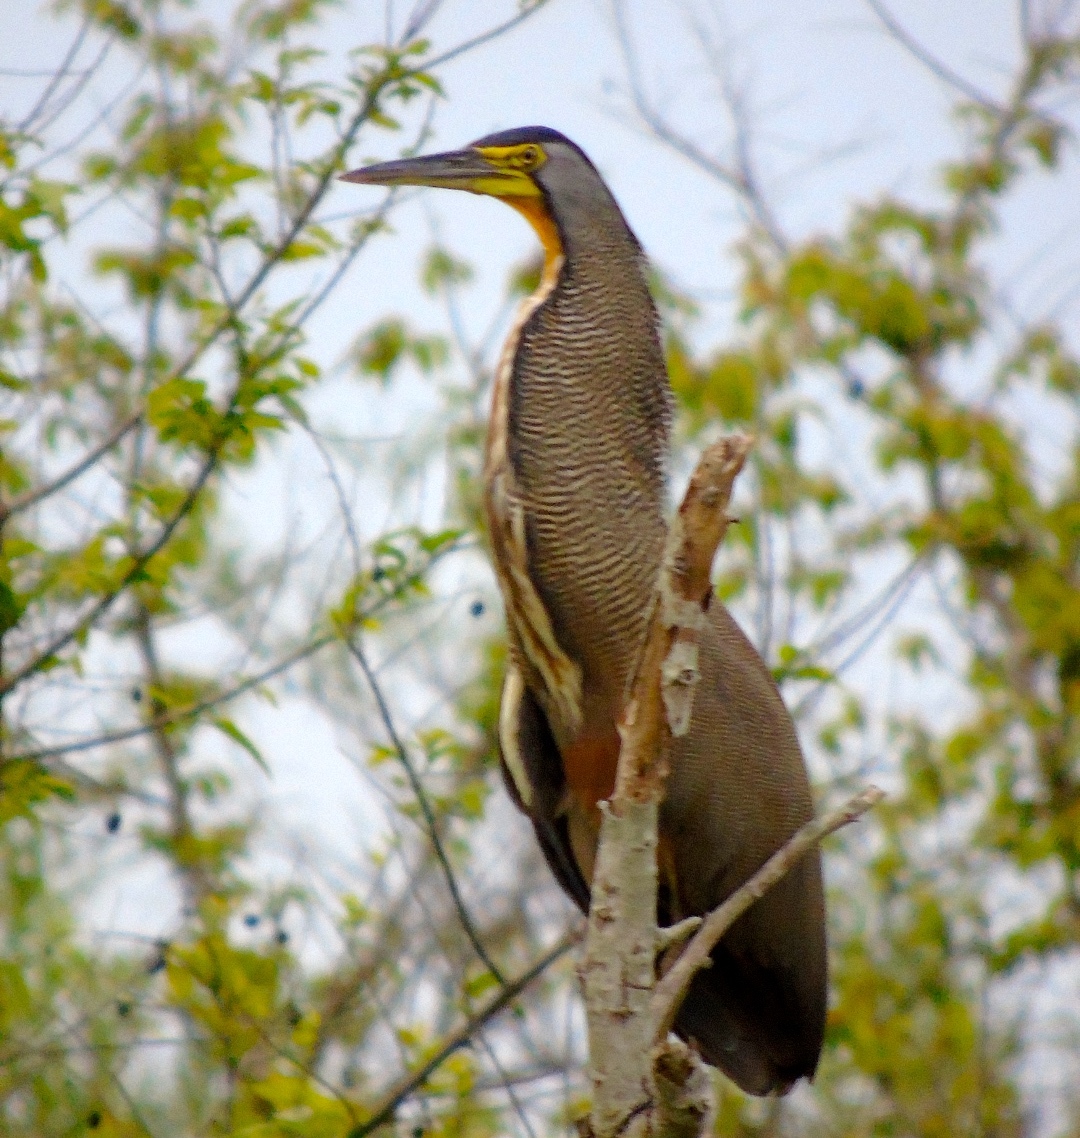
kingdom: Animalia
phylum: Chordata
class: Aves
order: Pelecaniformes
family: Ardeidae
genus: Tigrisoma
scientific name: Tigrisoma mexicanum
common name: Bare-throated tiger-heron
